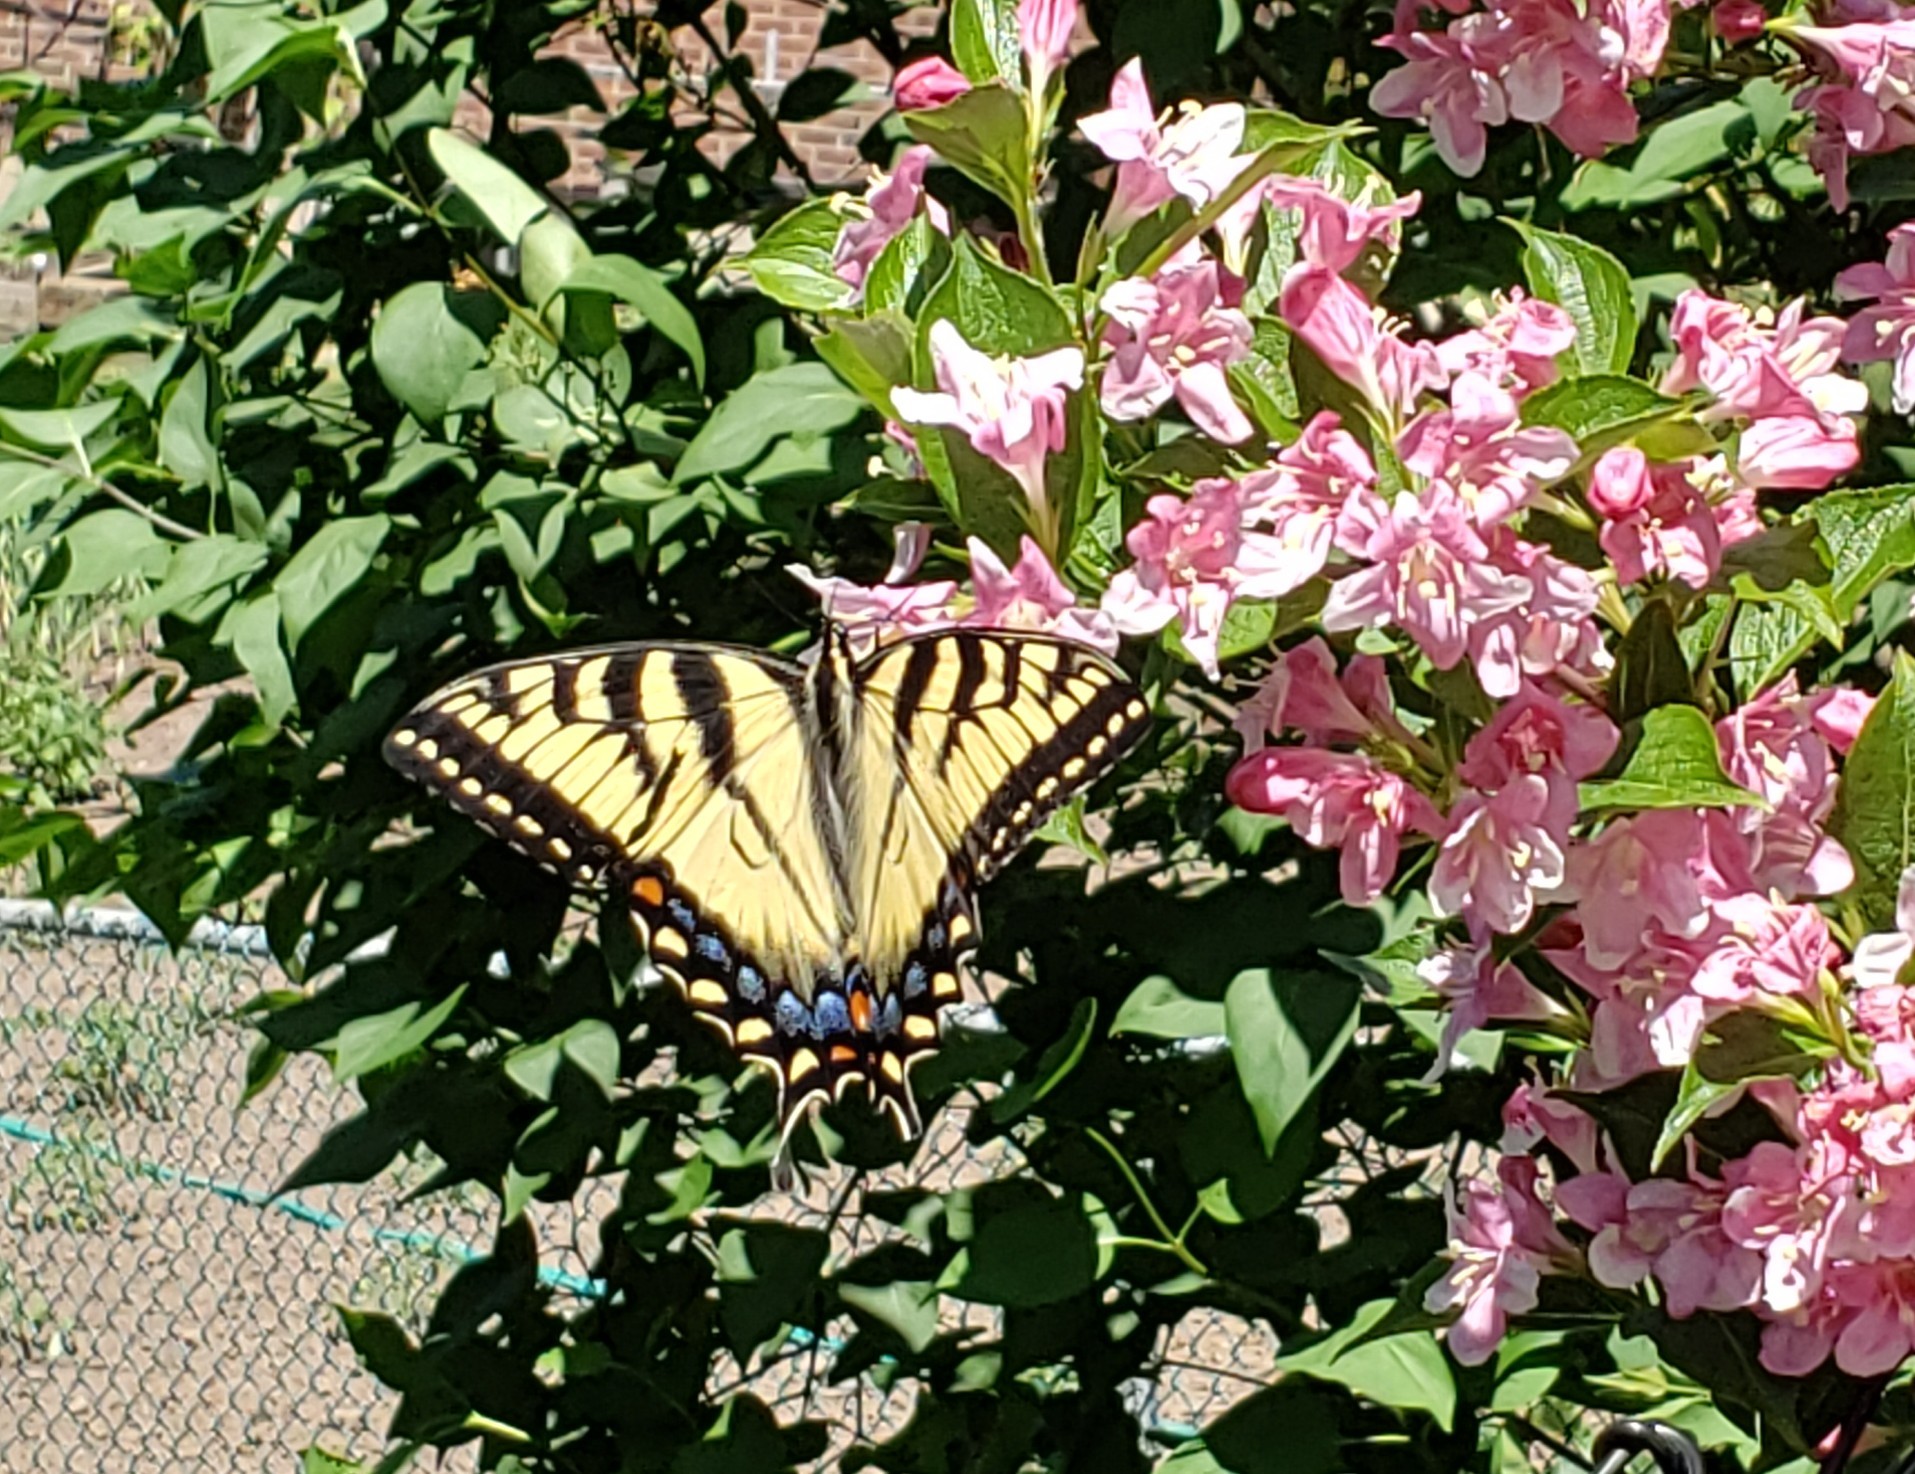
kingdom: Animalia
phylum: Arthropoda
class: Insecta
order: Lepidoptera
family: Papilionidae
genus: Papilio
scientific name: Papilio glaucus
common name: Tiger swallowtail
